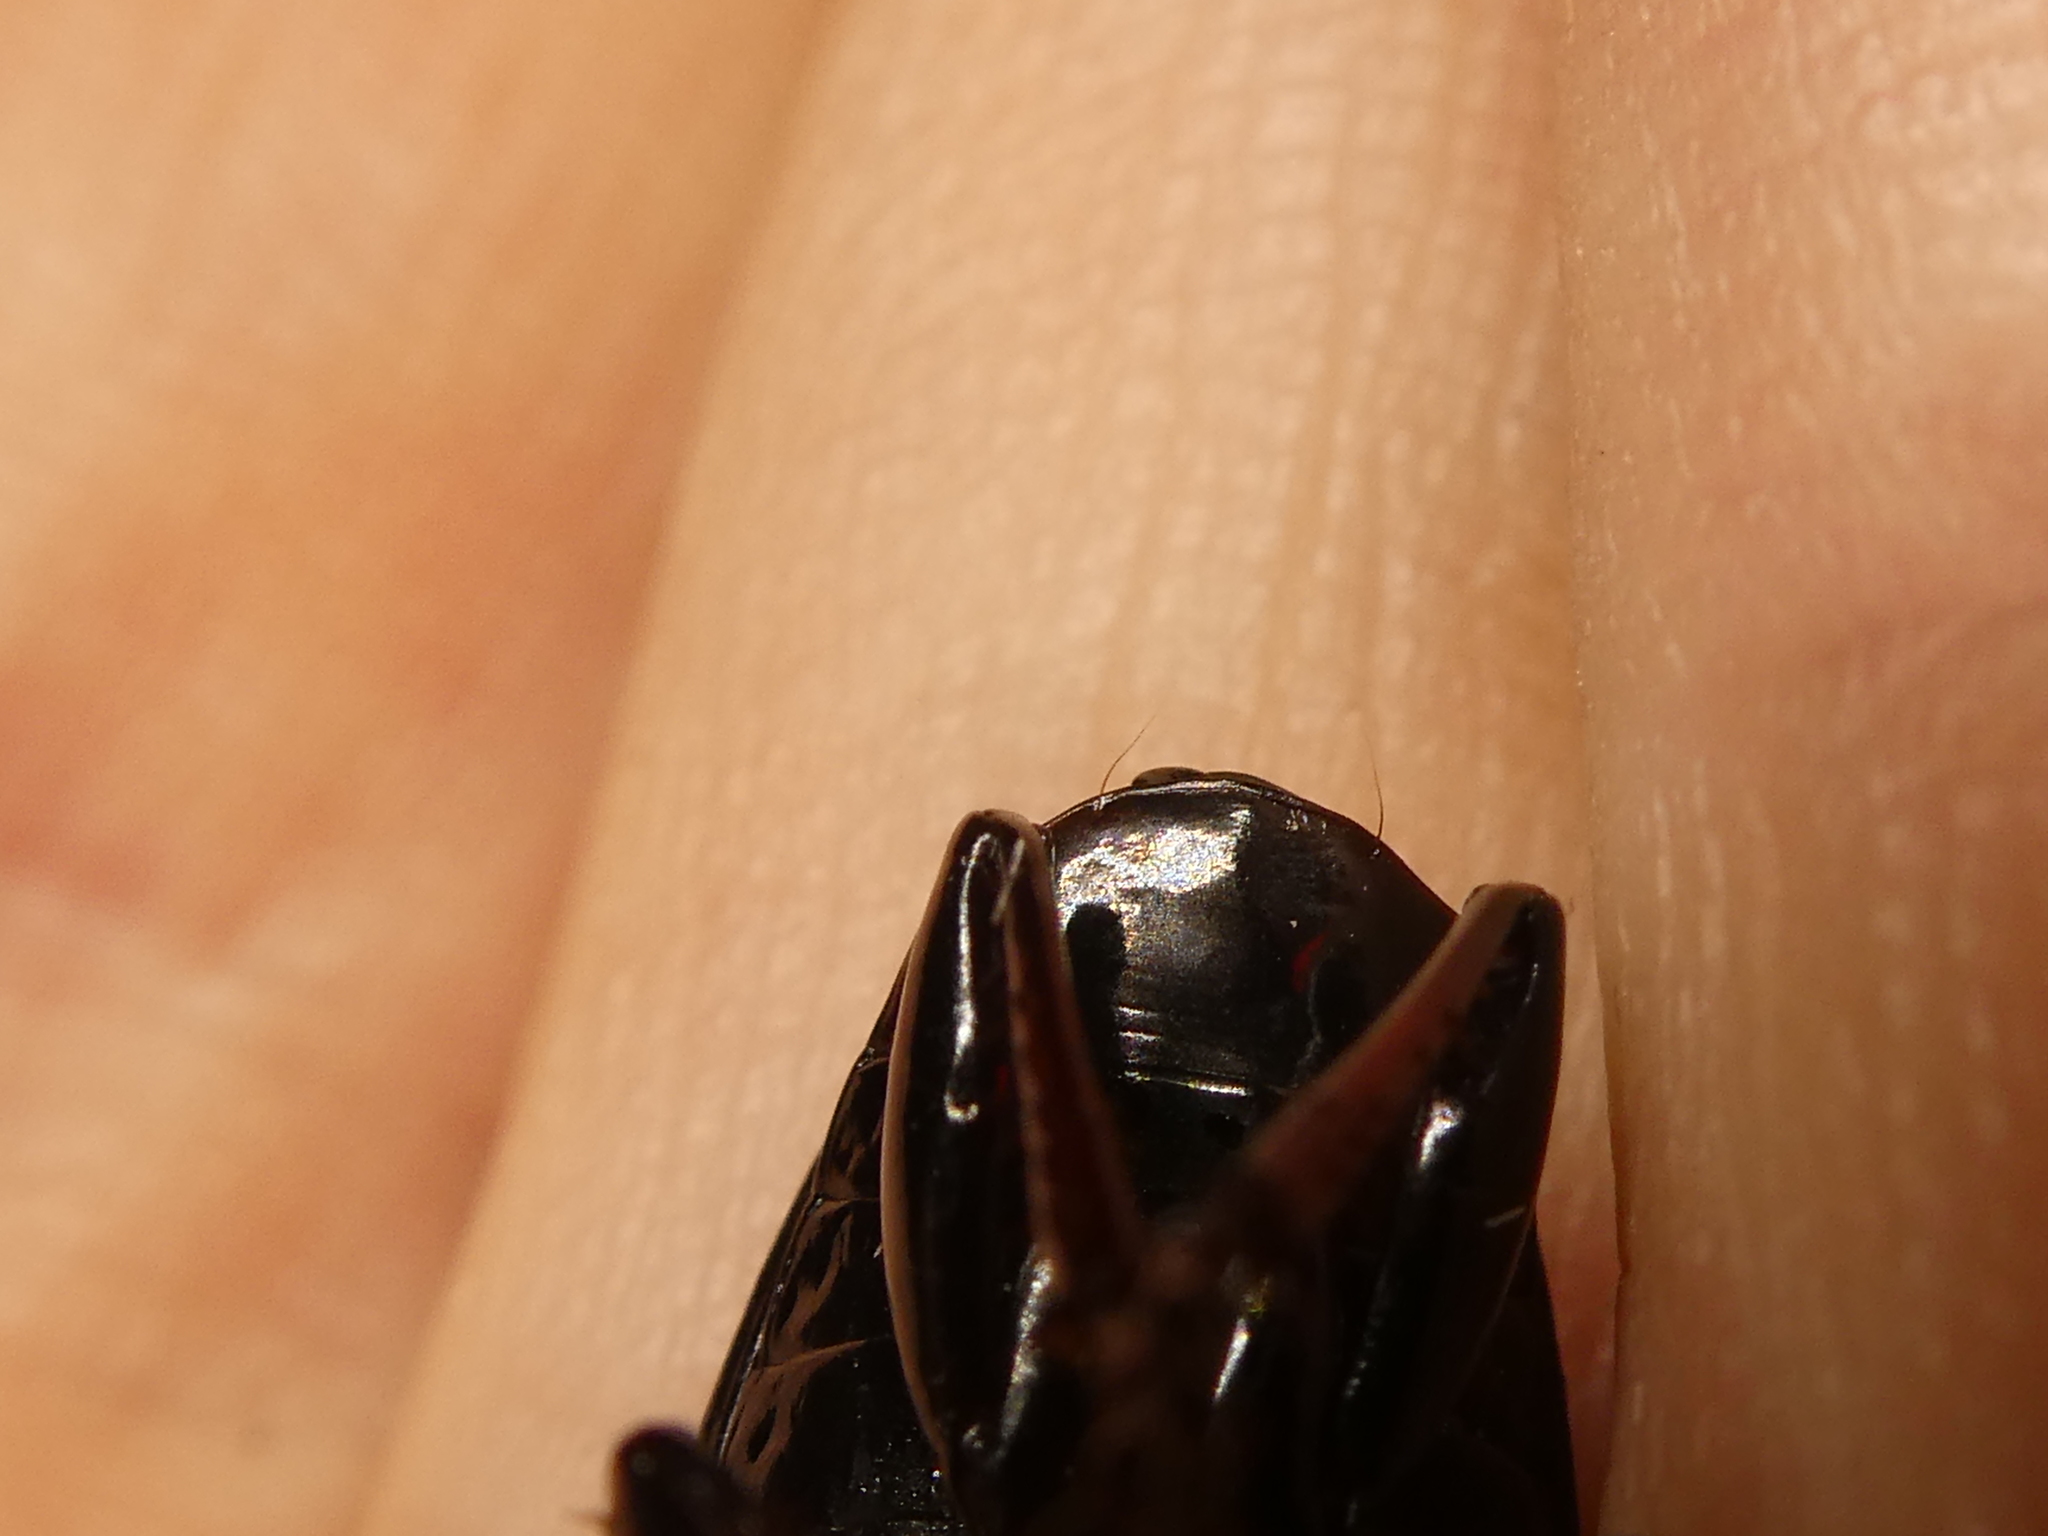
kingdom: Animalia
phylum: Arthropoda
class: Insecta
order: Coleoptera
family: Carabidae
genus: Zeopoecilus
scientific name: Zeopoecilus caperatus
